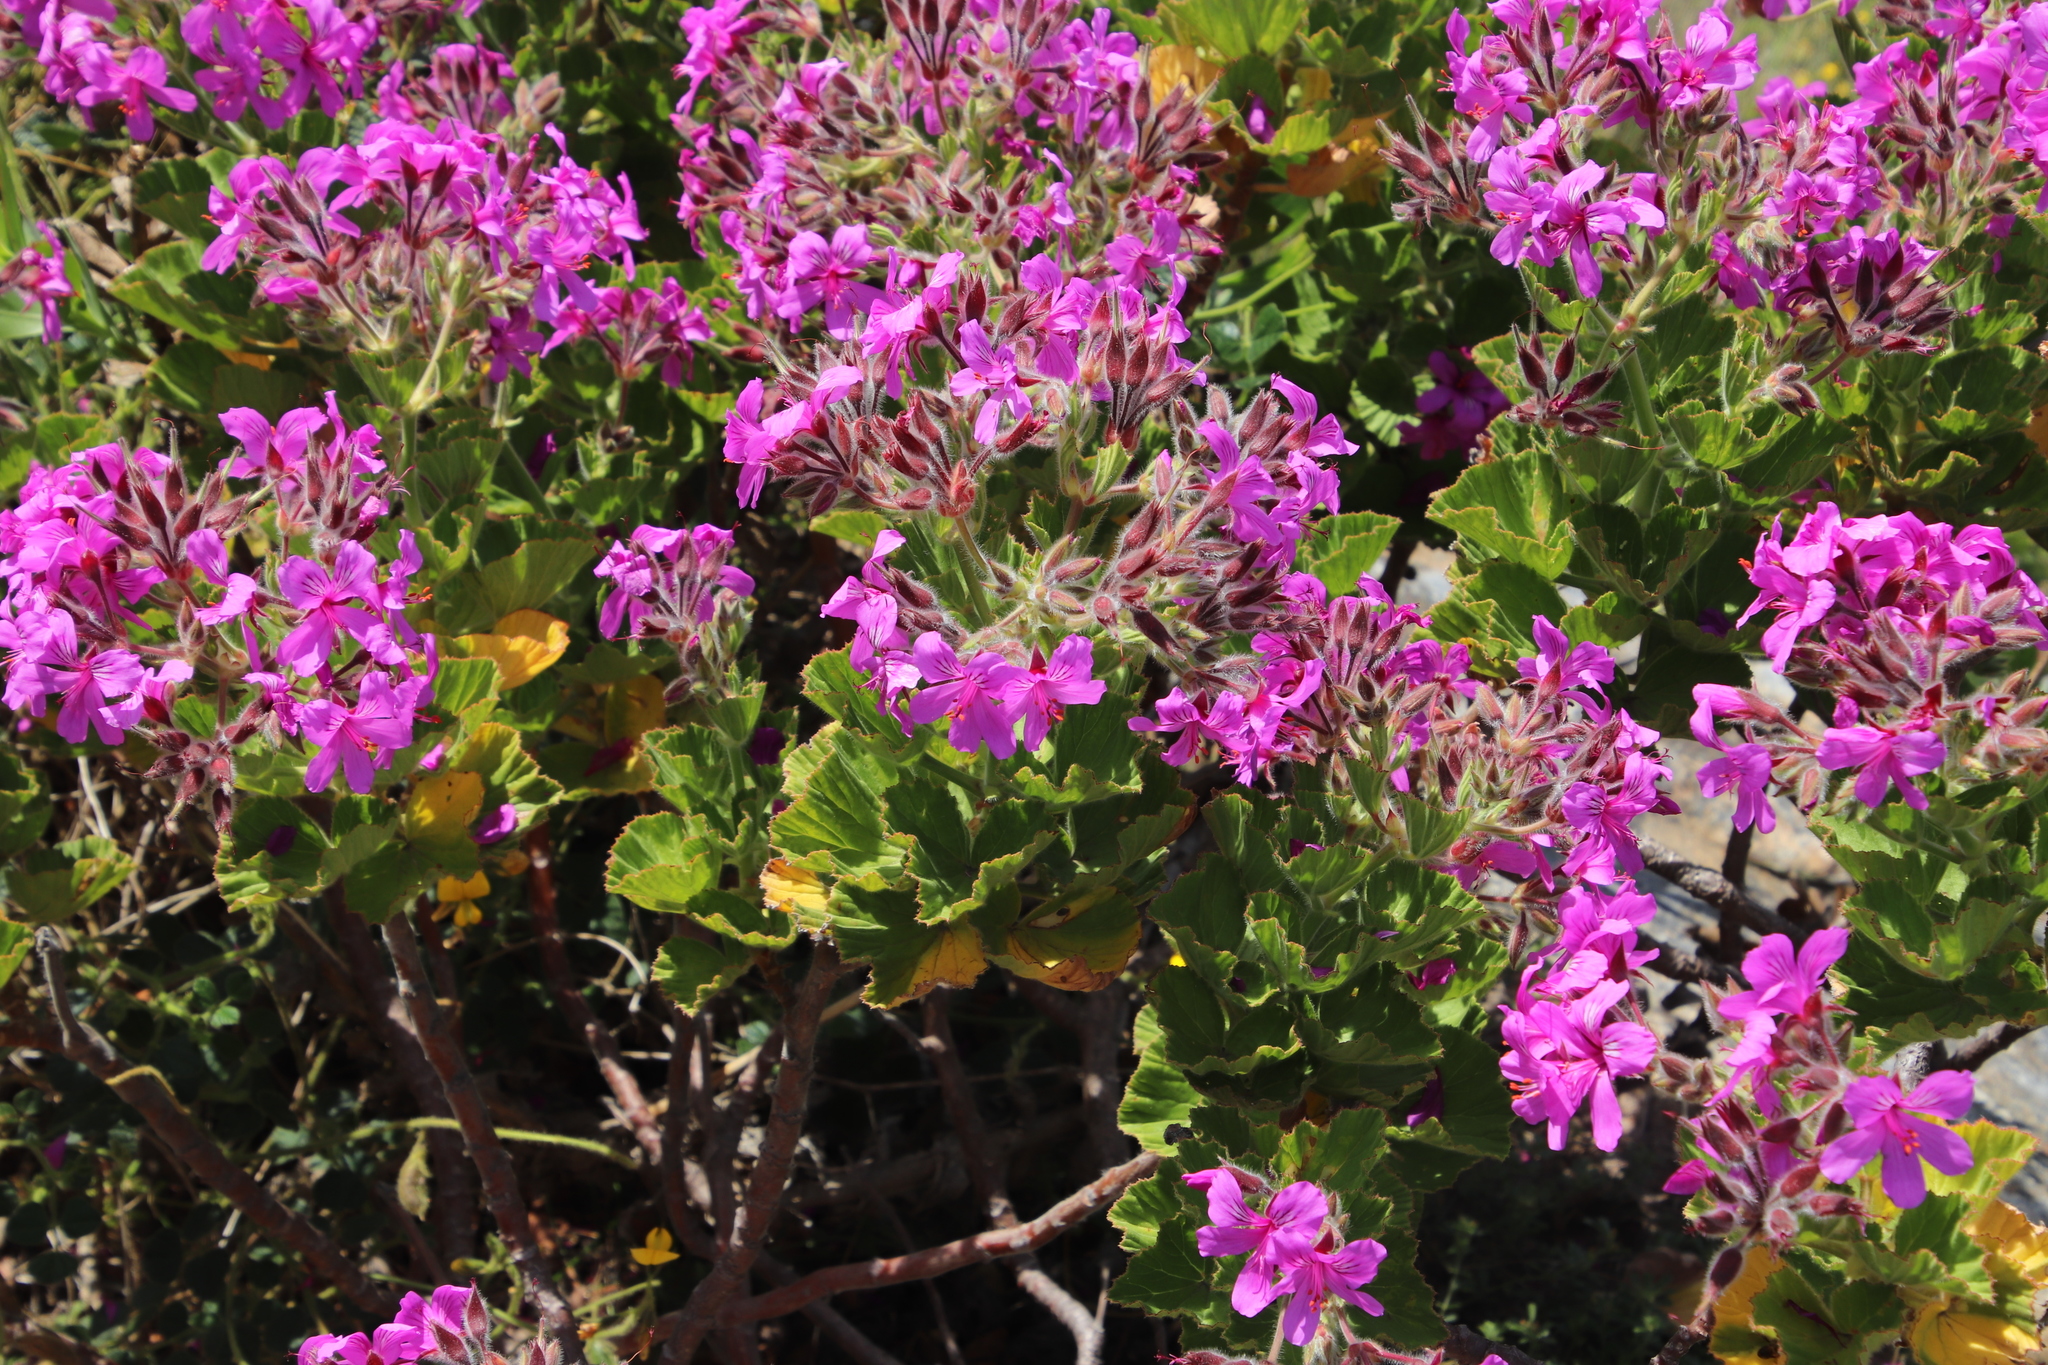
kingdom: Plantae
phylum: Tracheophyta
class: Magnoliopsida
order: Geraniales
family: Geraniaceae
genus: Pelargonium
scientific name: Pelargonium cucullatum
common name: Tree pelargonium
